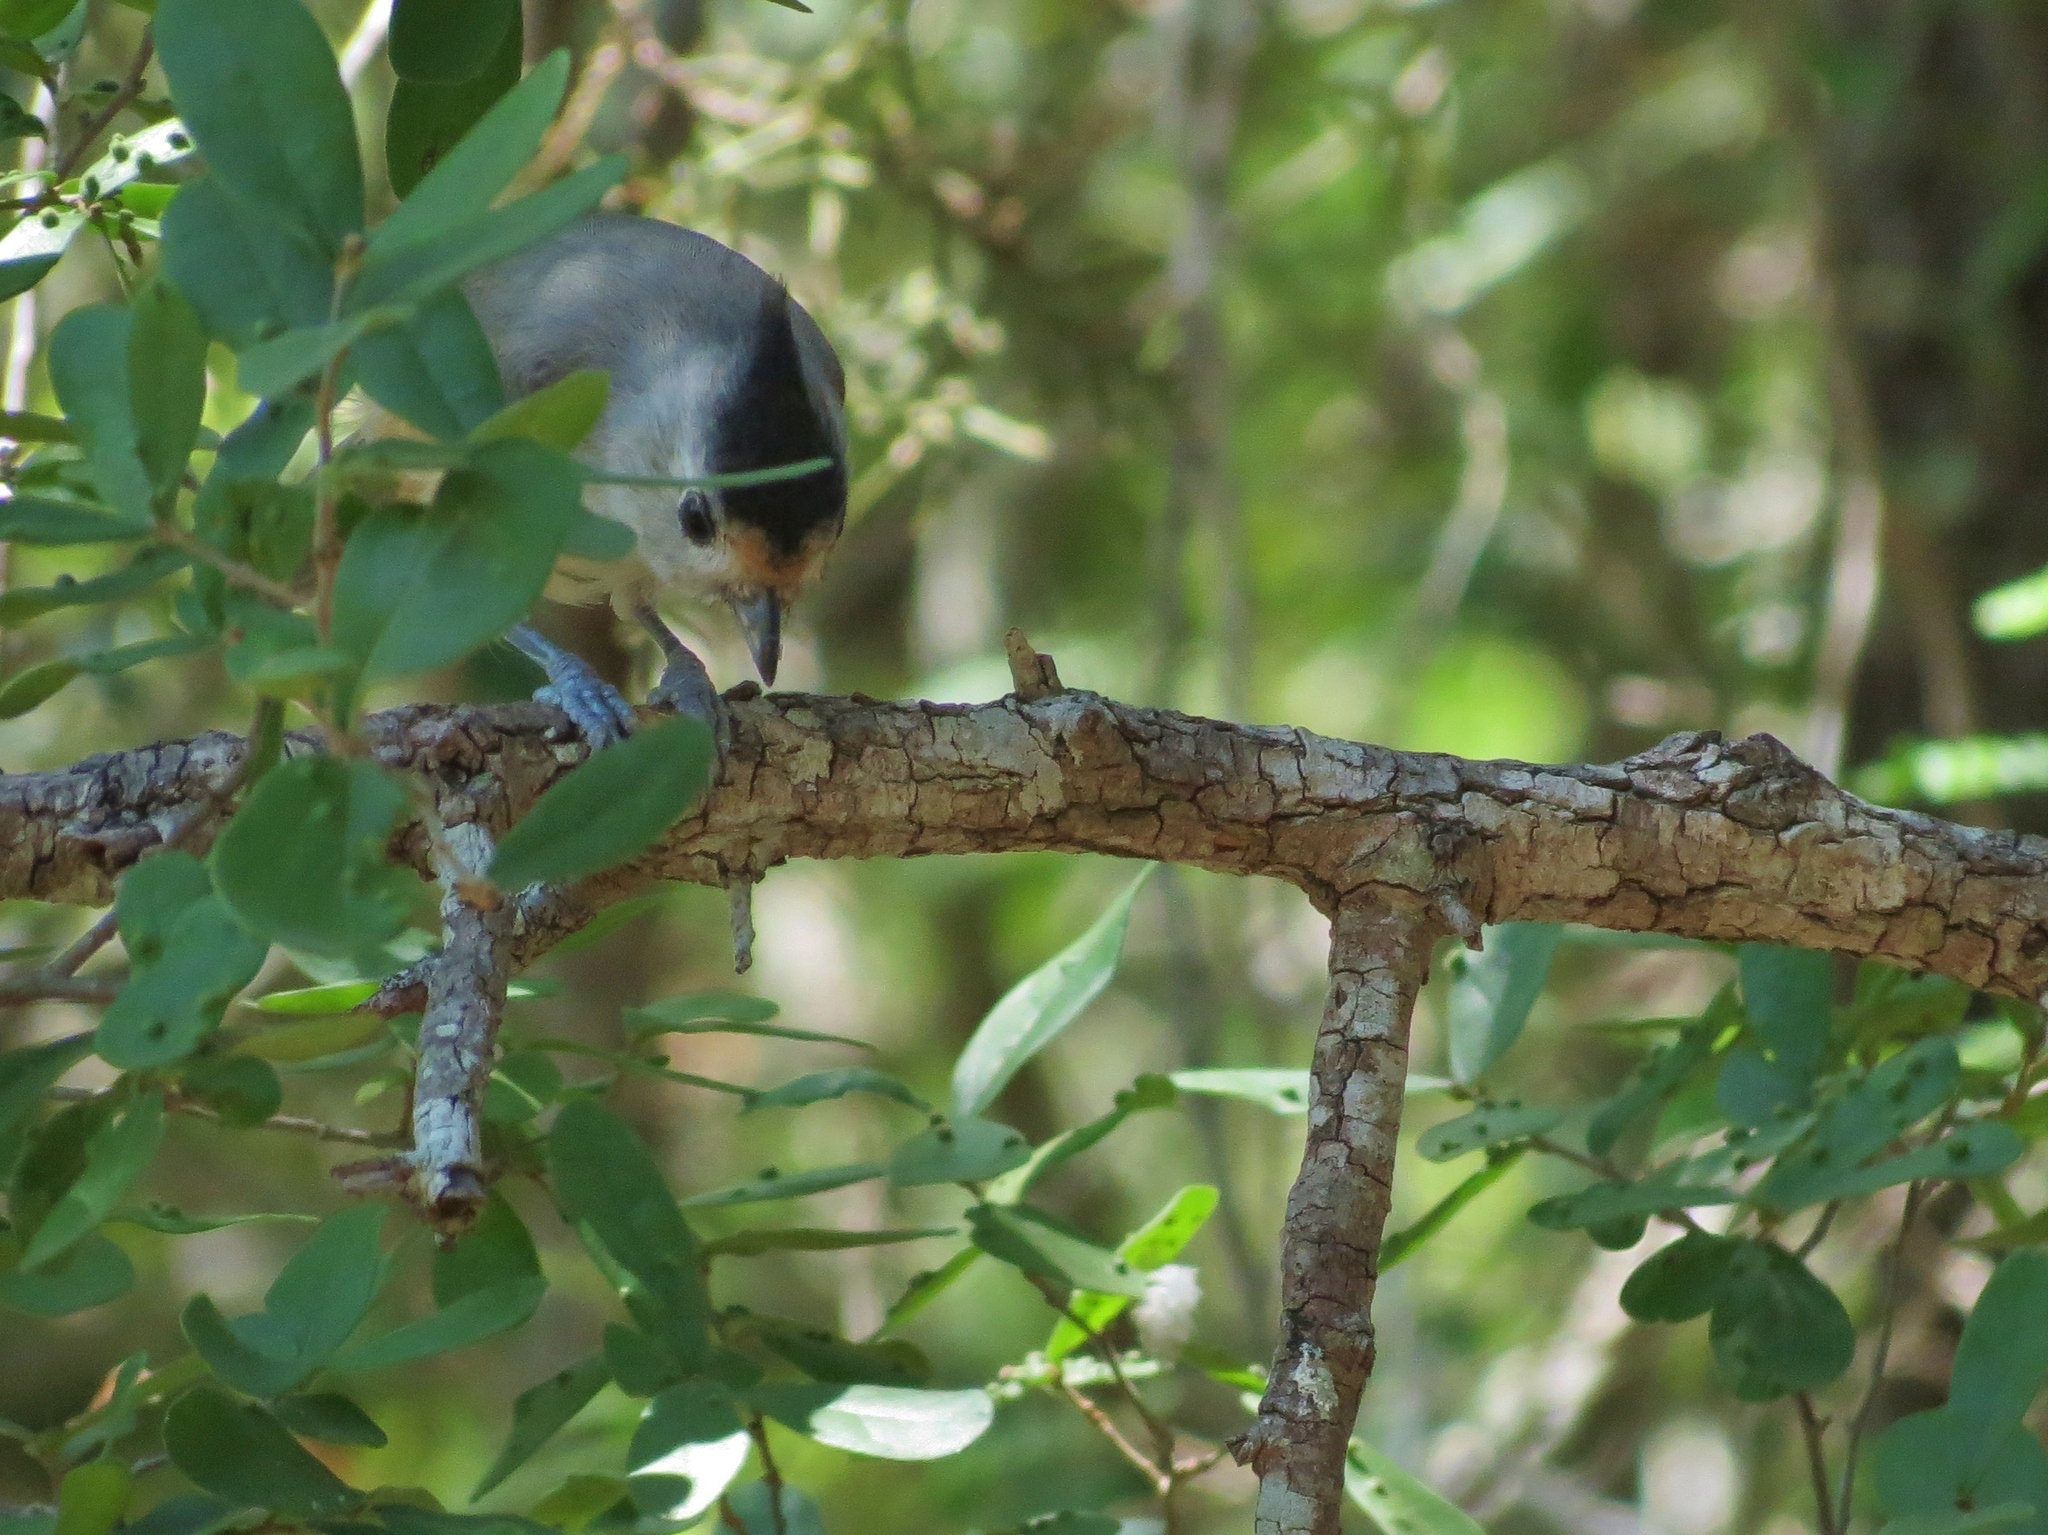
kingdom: Animalia
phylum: Chordata
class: Aves
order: Passeriformes
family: Paridae
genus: Baeolophus
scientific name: Baeolophus atricristatus
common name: Black-crested titmouse
